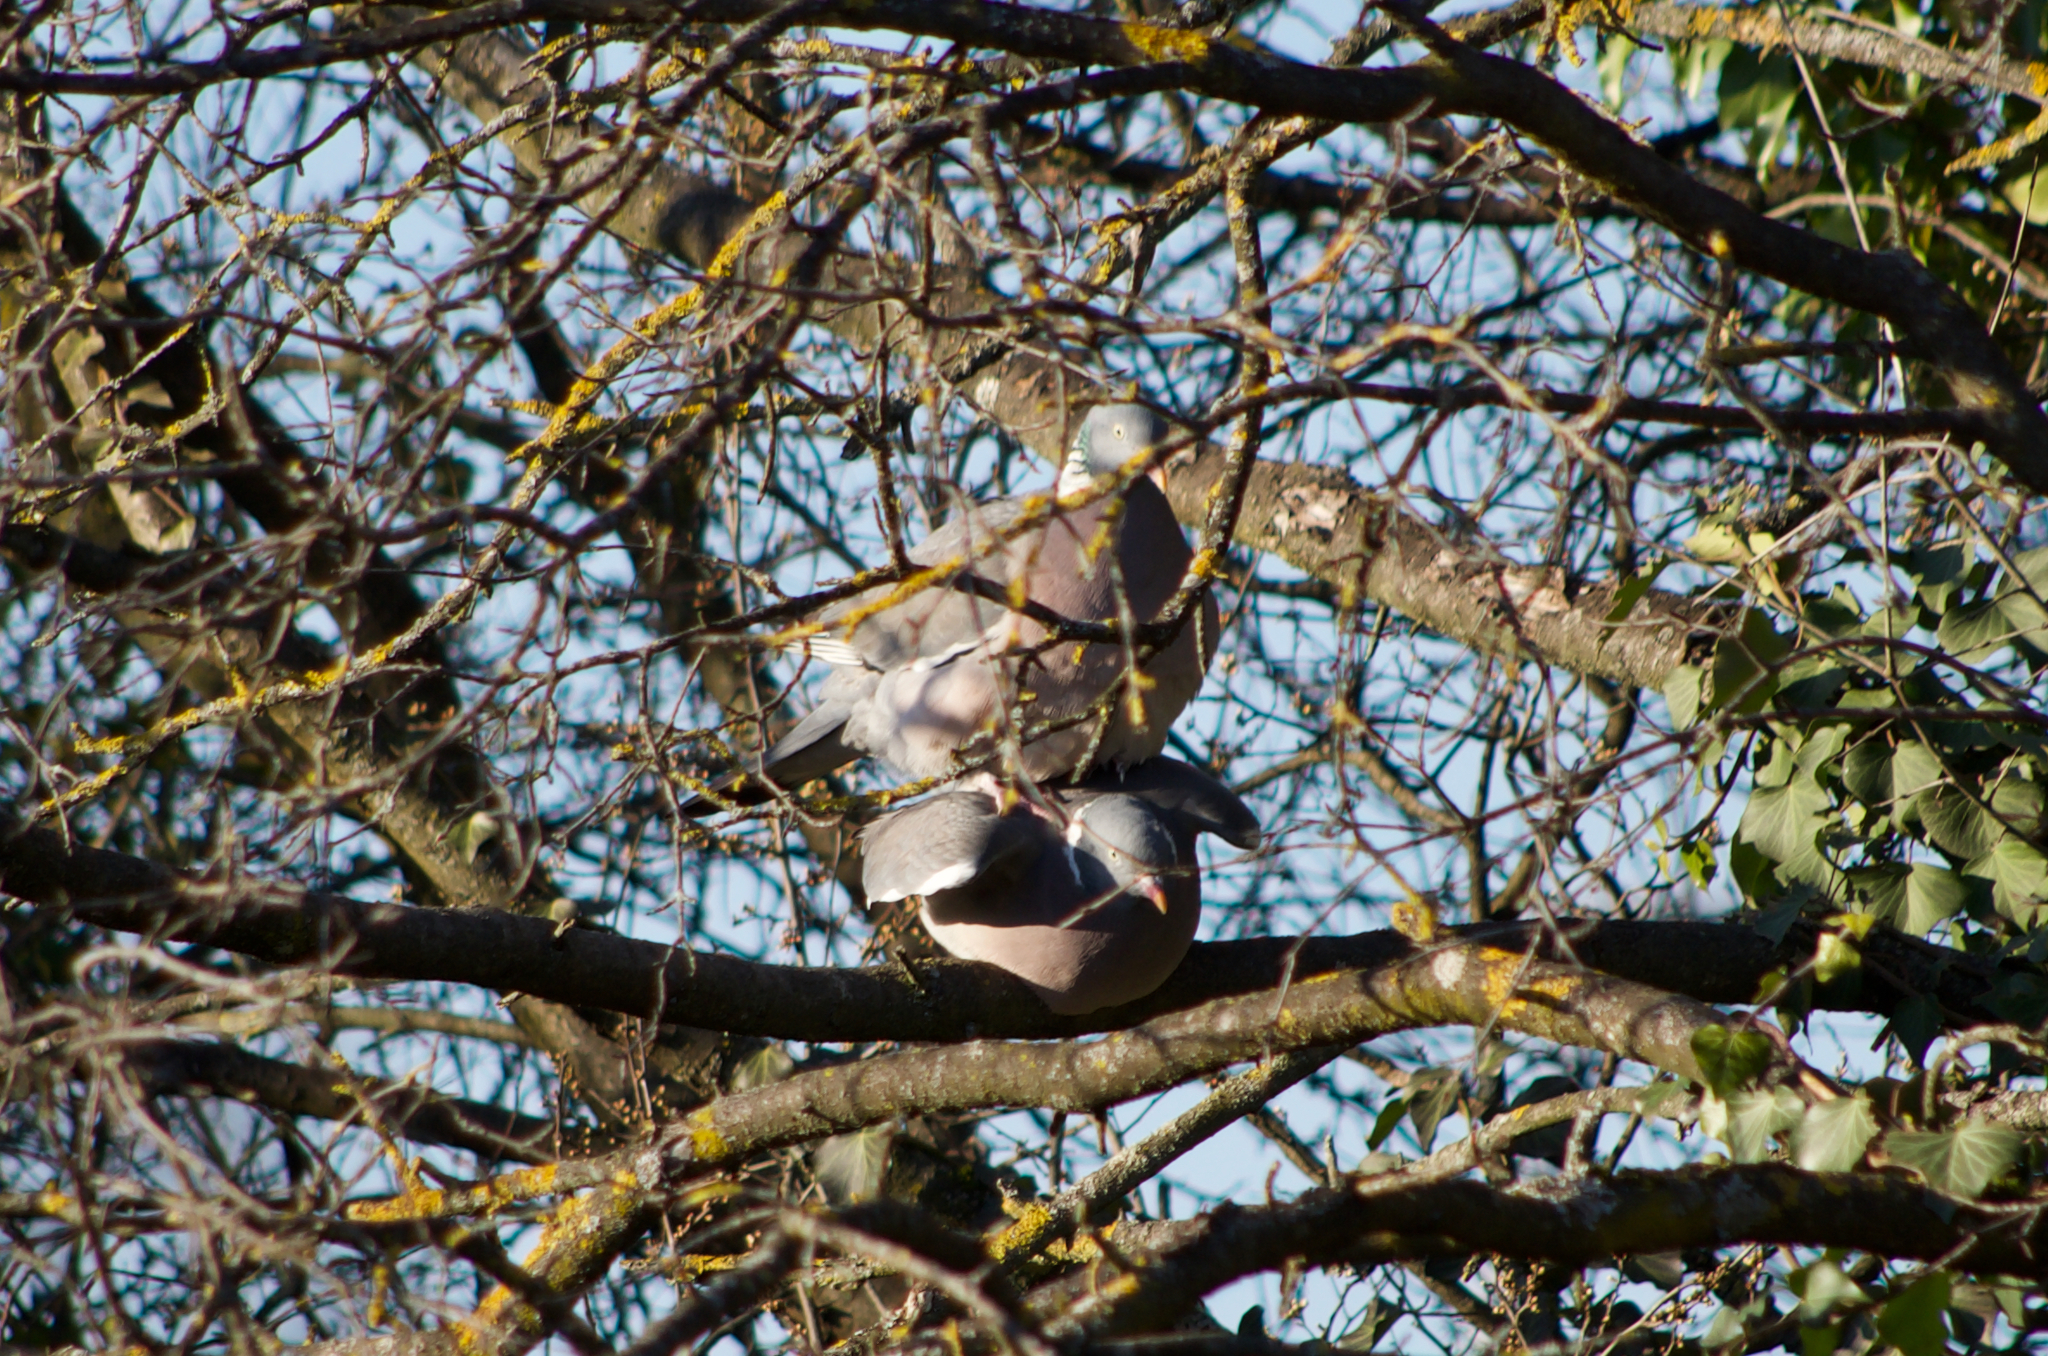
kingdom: Animalia
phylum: Chordata
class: Aves
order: Columbiformes
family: Columbidae
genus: Columba
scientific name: Columba palumbus
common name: Common wood pigeon
